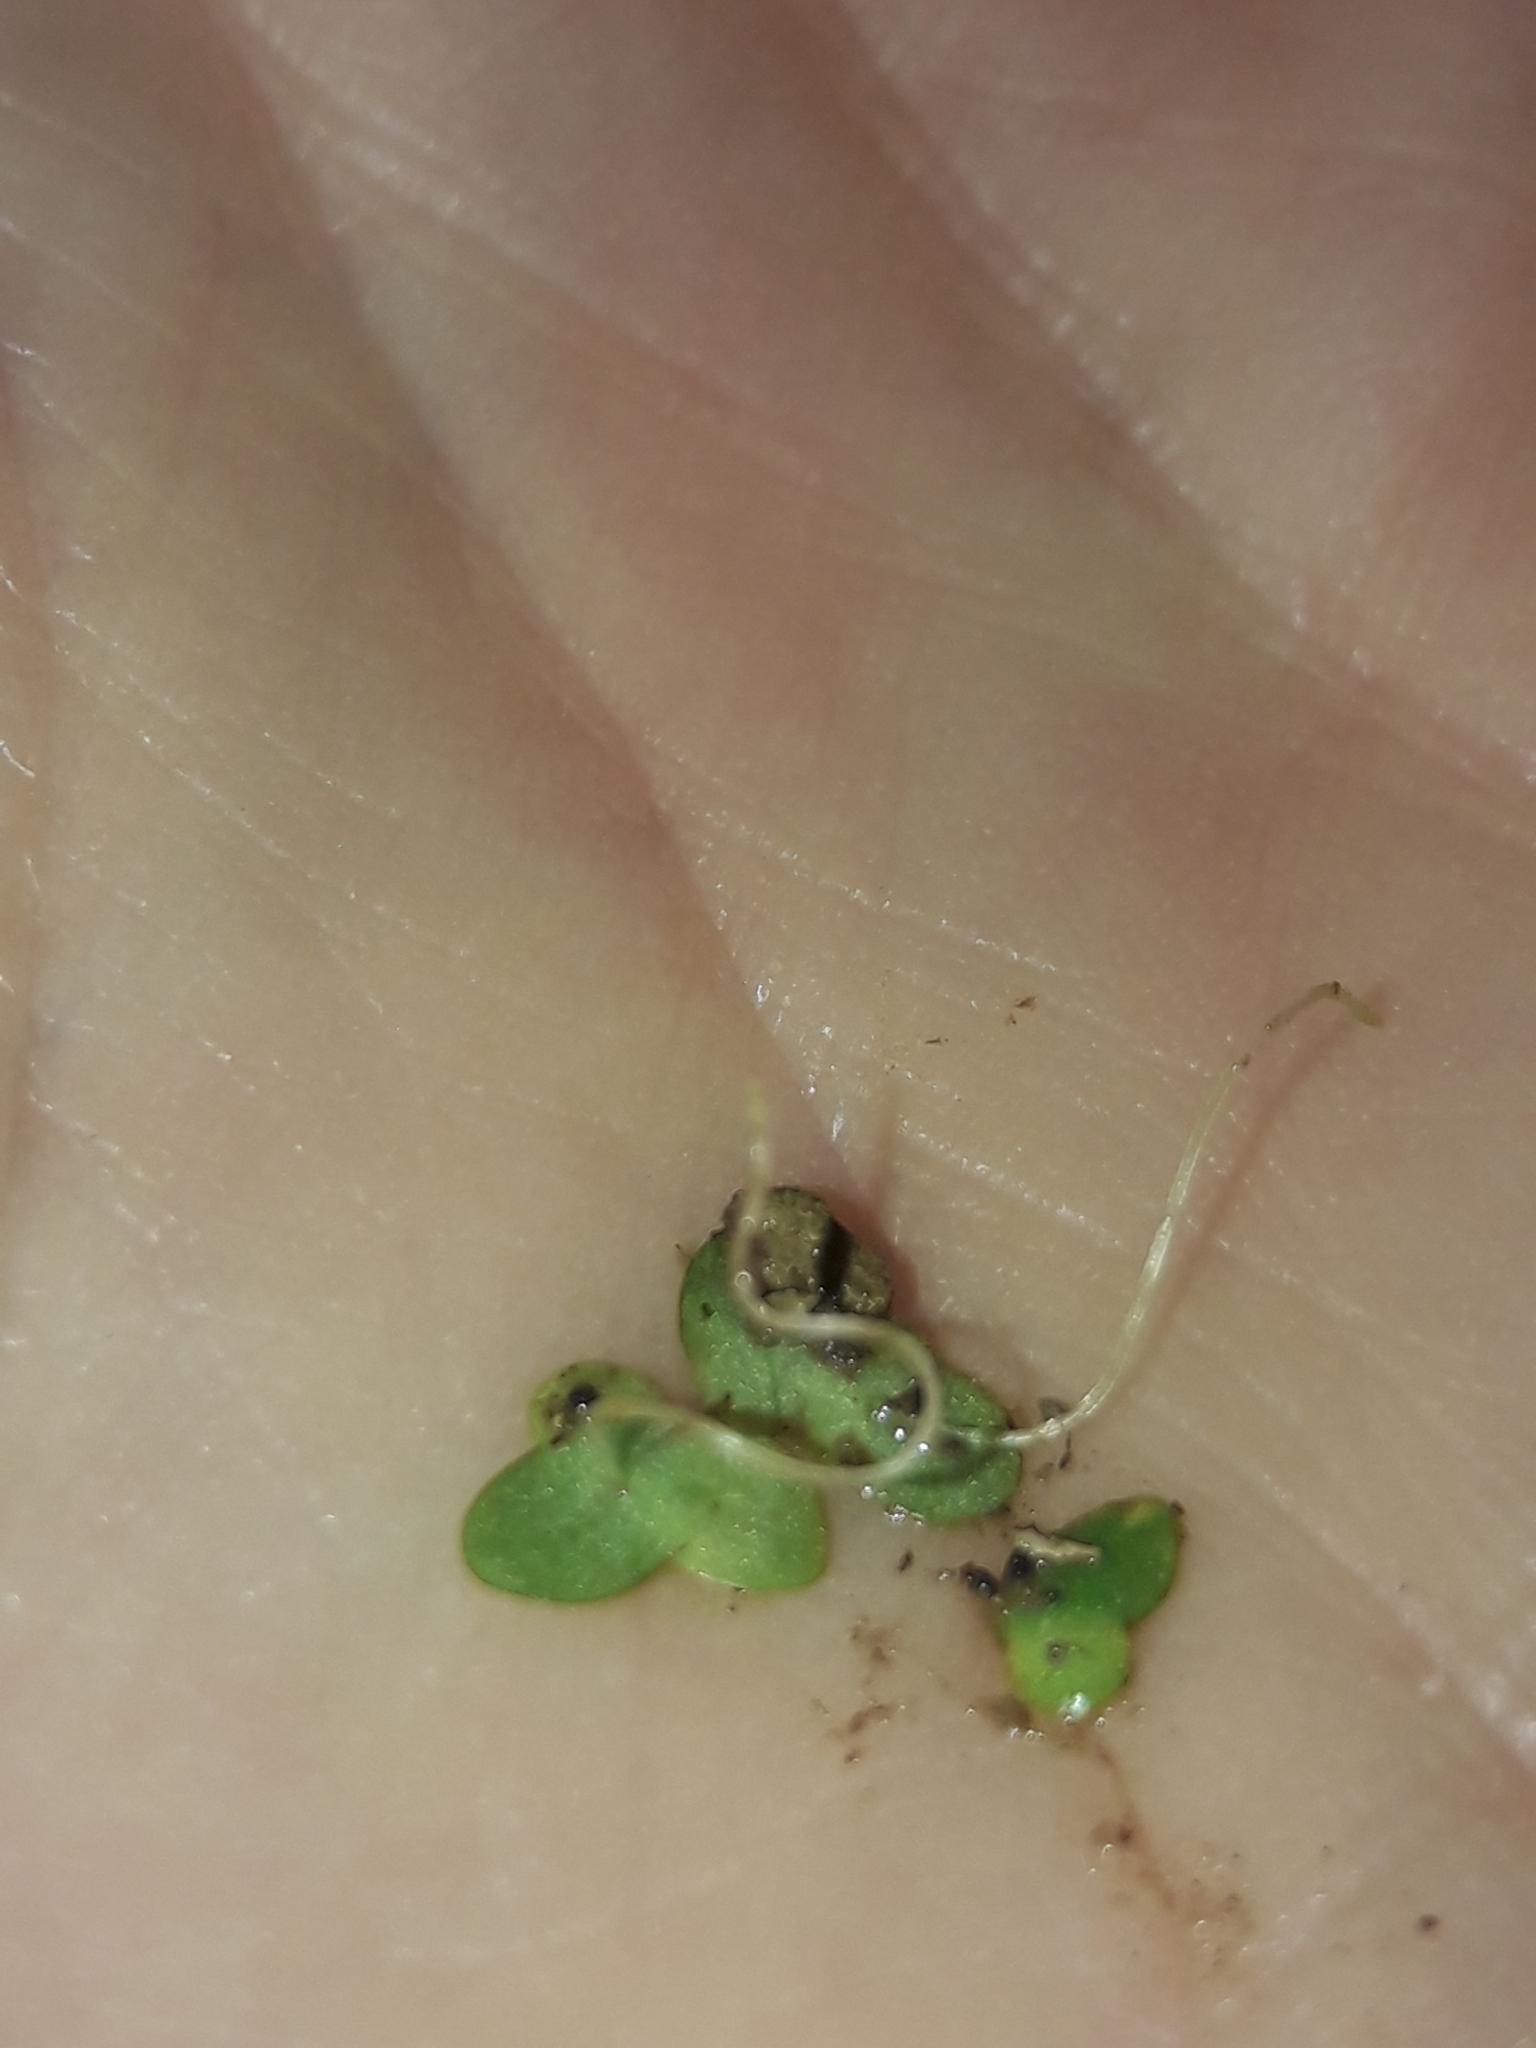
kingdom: Plantae
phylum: Tracheophyta
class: Liliopsida
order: Alismatales
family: Araceae
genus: Lemna
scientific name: Lemna disperma
